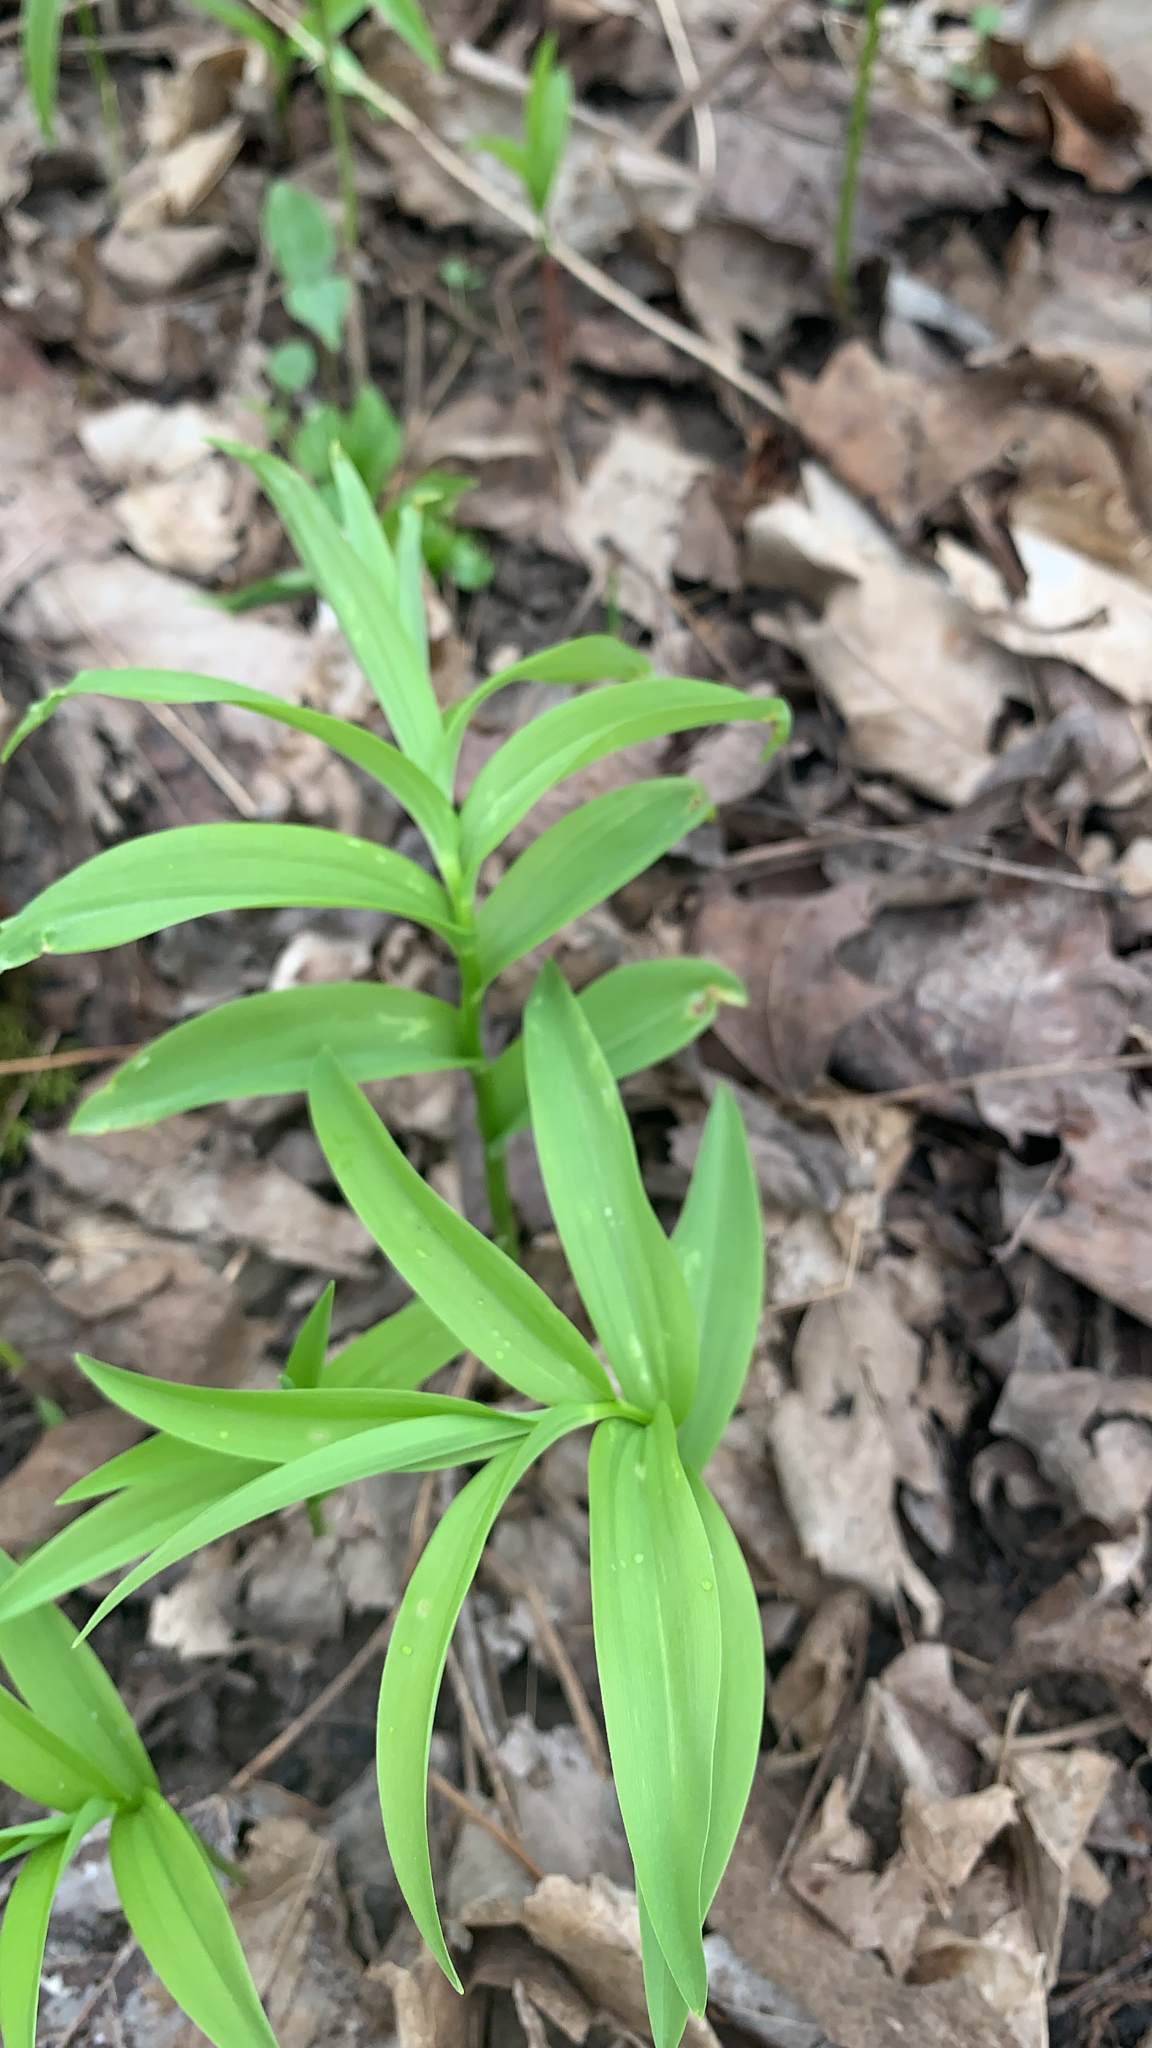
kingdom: Plantae
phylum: Tracheophyta
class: Liliopsida
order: Asparagales
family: Asparagaceae
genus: Maianthemum
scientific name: Maianthemum stellatum
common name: Little false solomon's seal
